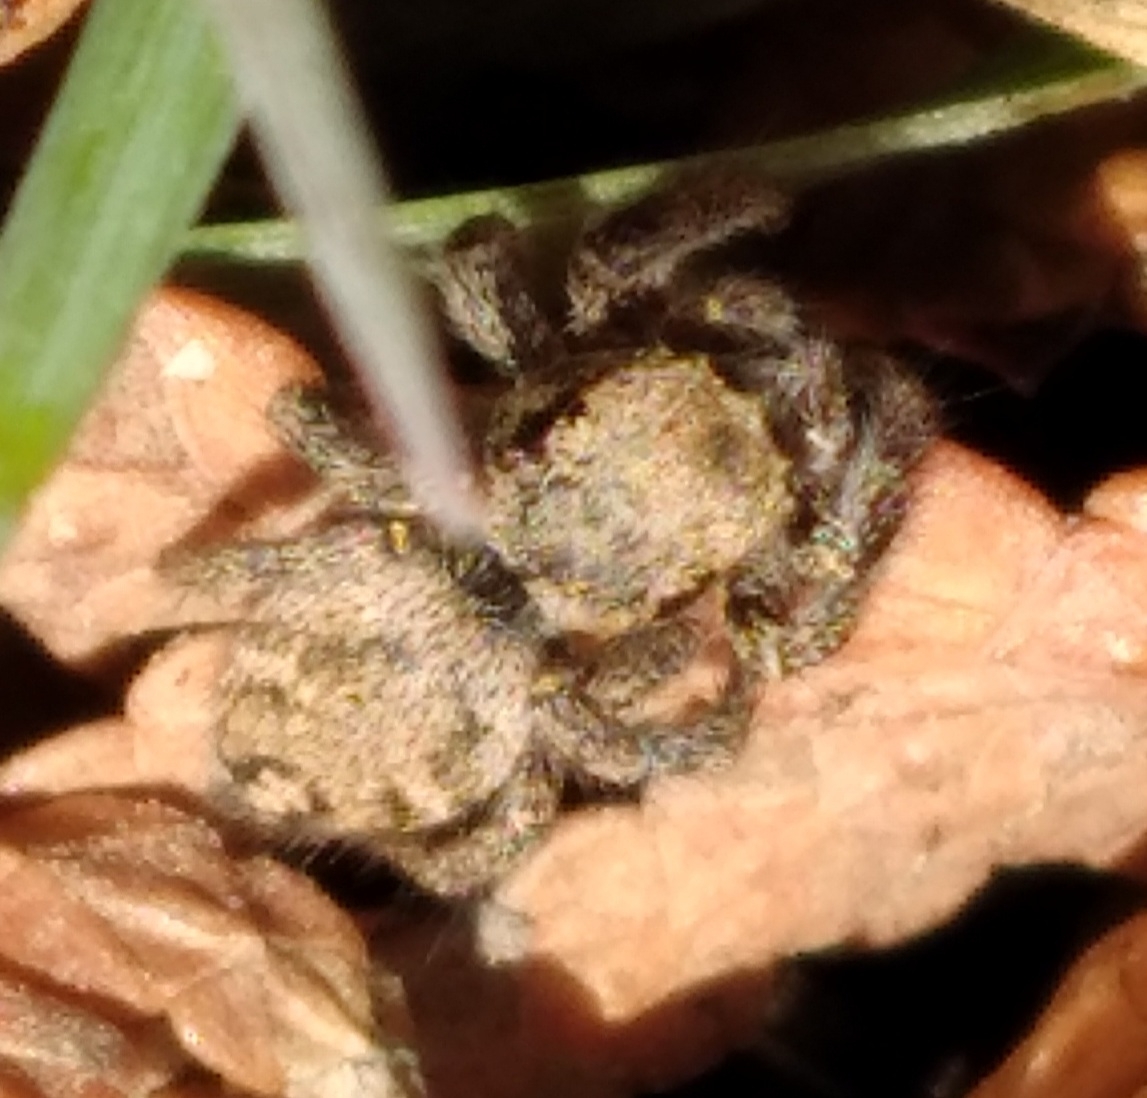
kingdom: Animalia
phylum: Arthropoda
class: Arachnida
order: Araneae
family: Salticidae
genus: Habronattus
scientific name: Habronattus cuspidatus
